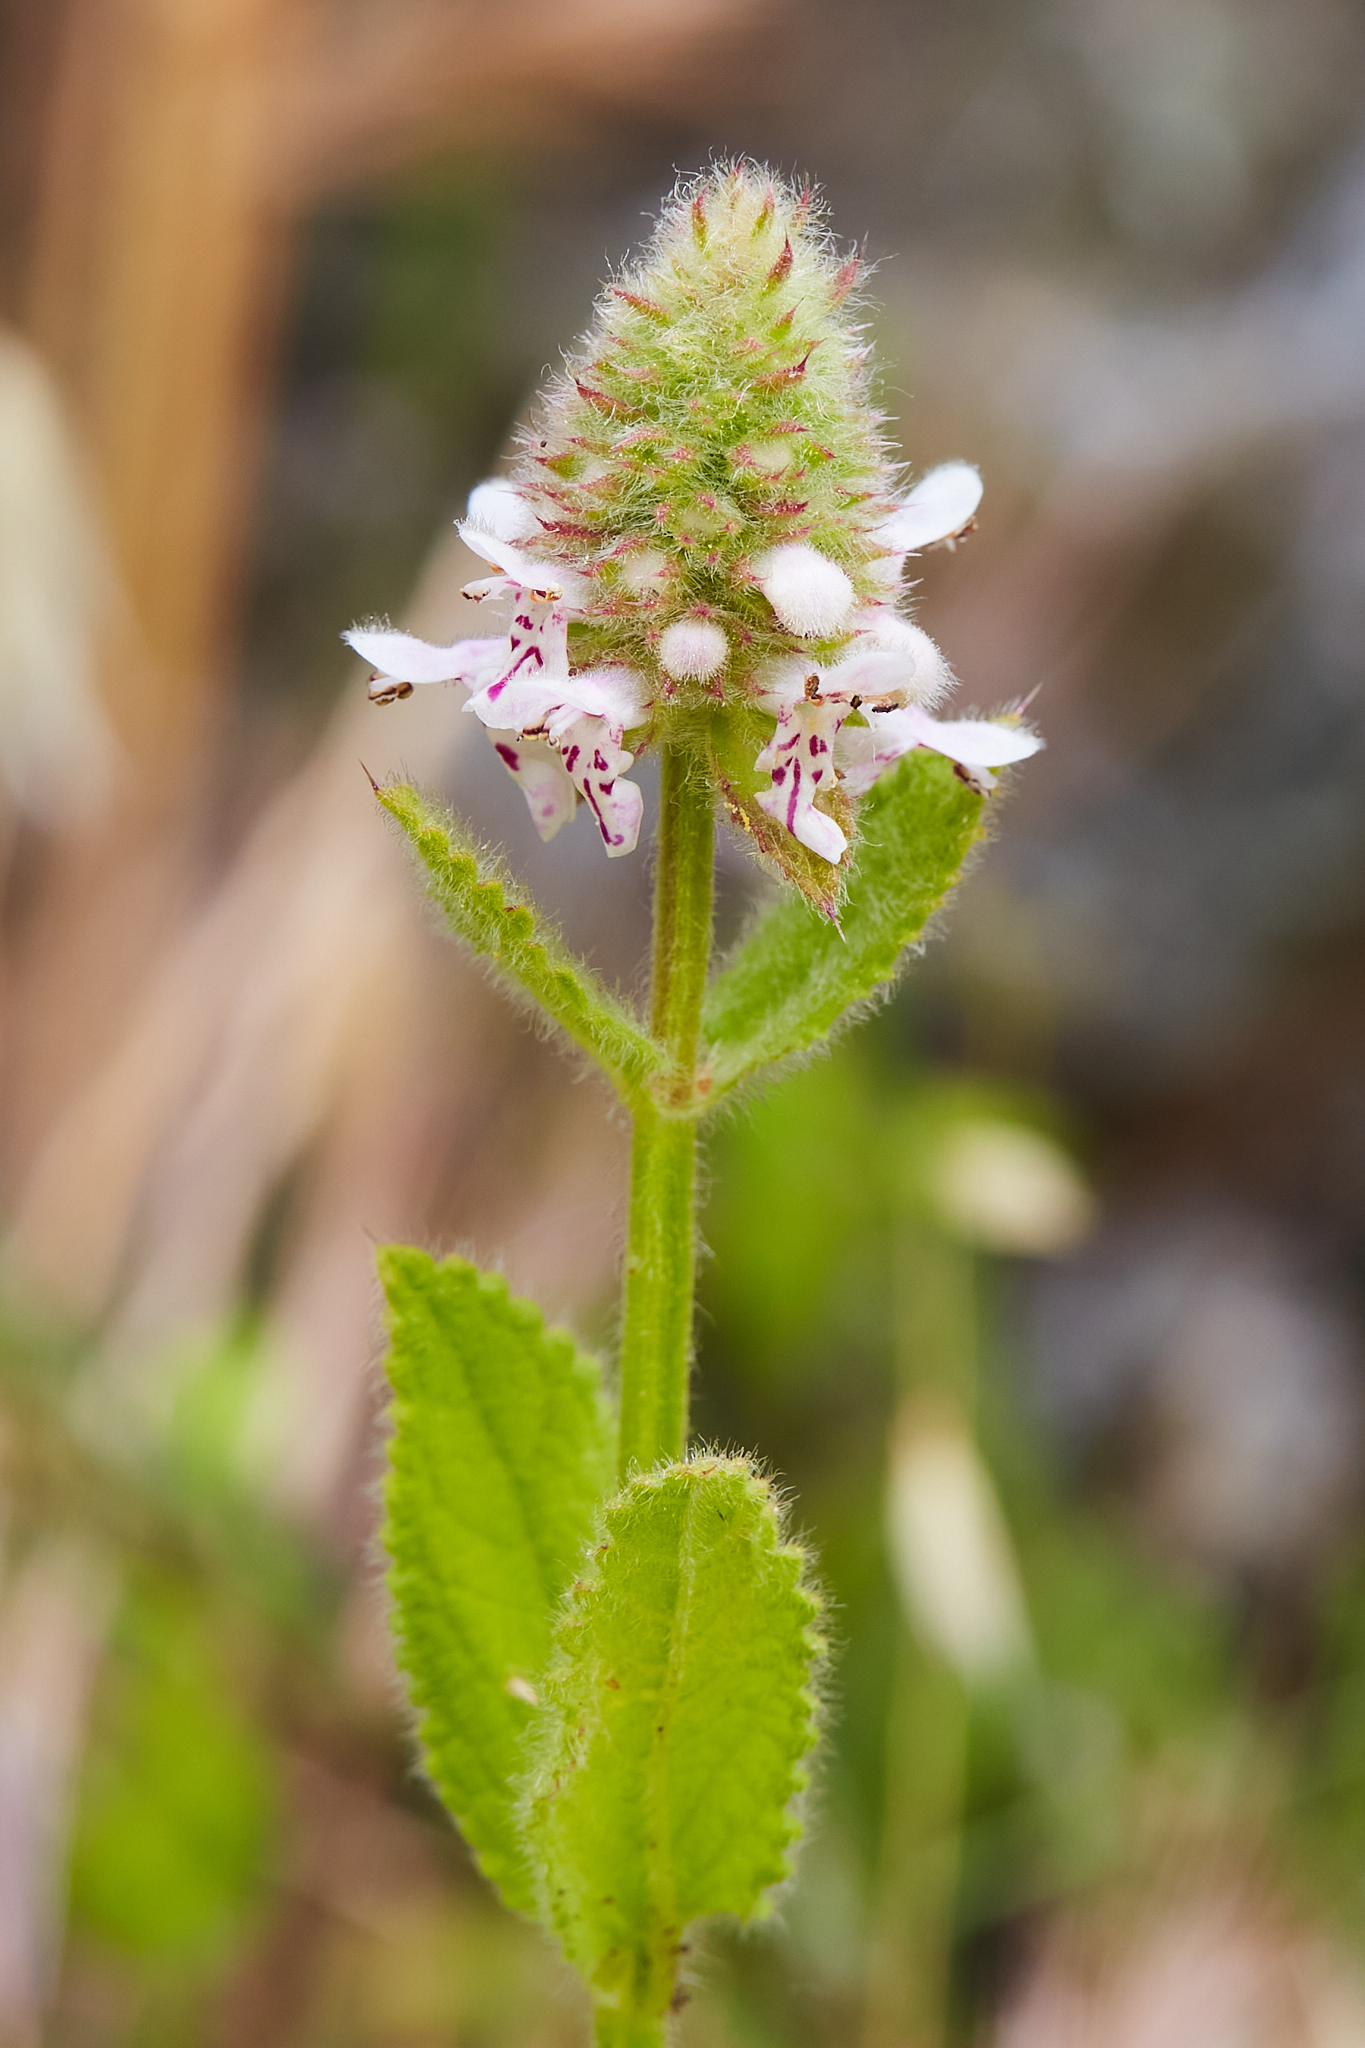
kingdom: Plantae
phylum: Tracheophyta
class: Magnoliopsida
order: Lamiales
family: Lamiaceae
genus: Stachys
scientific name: Stachys pycnantha
